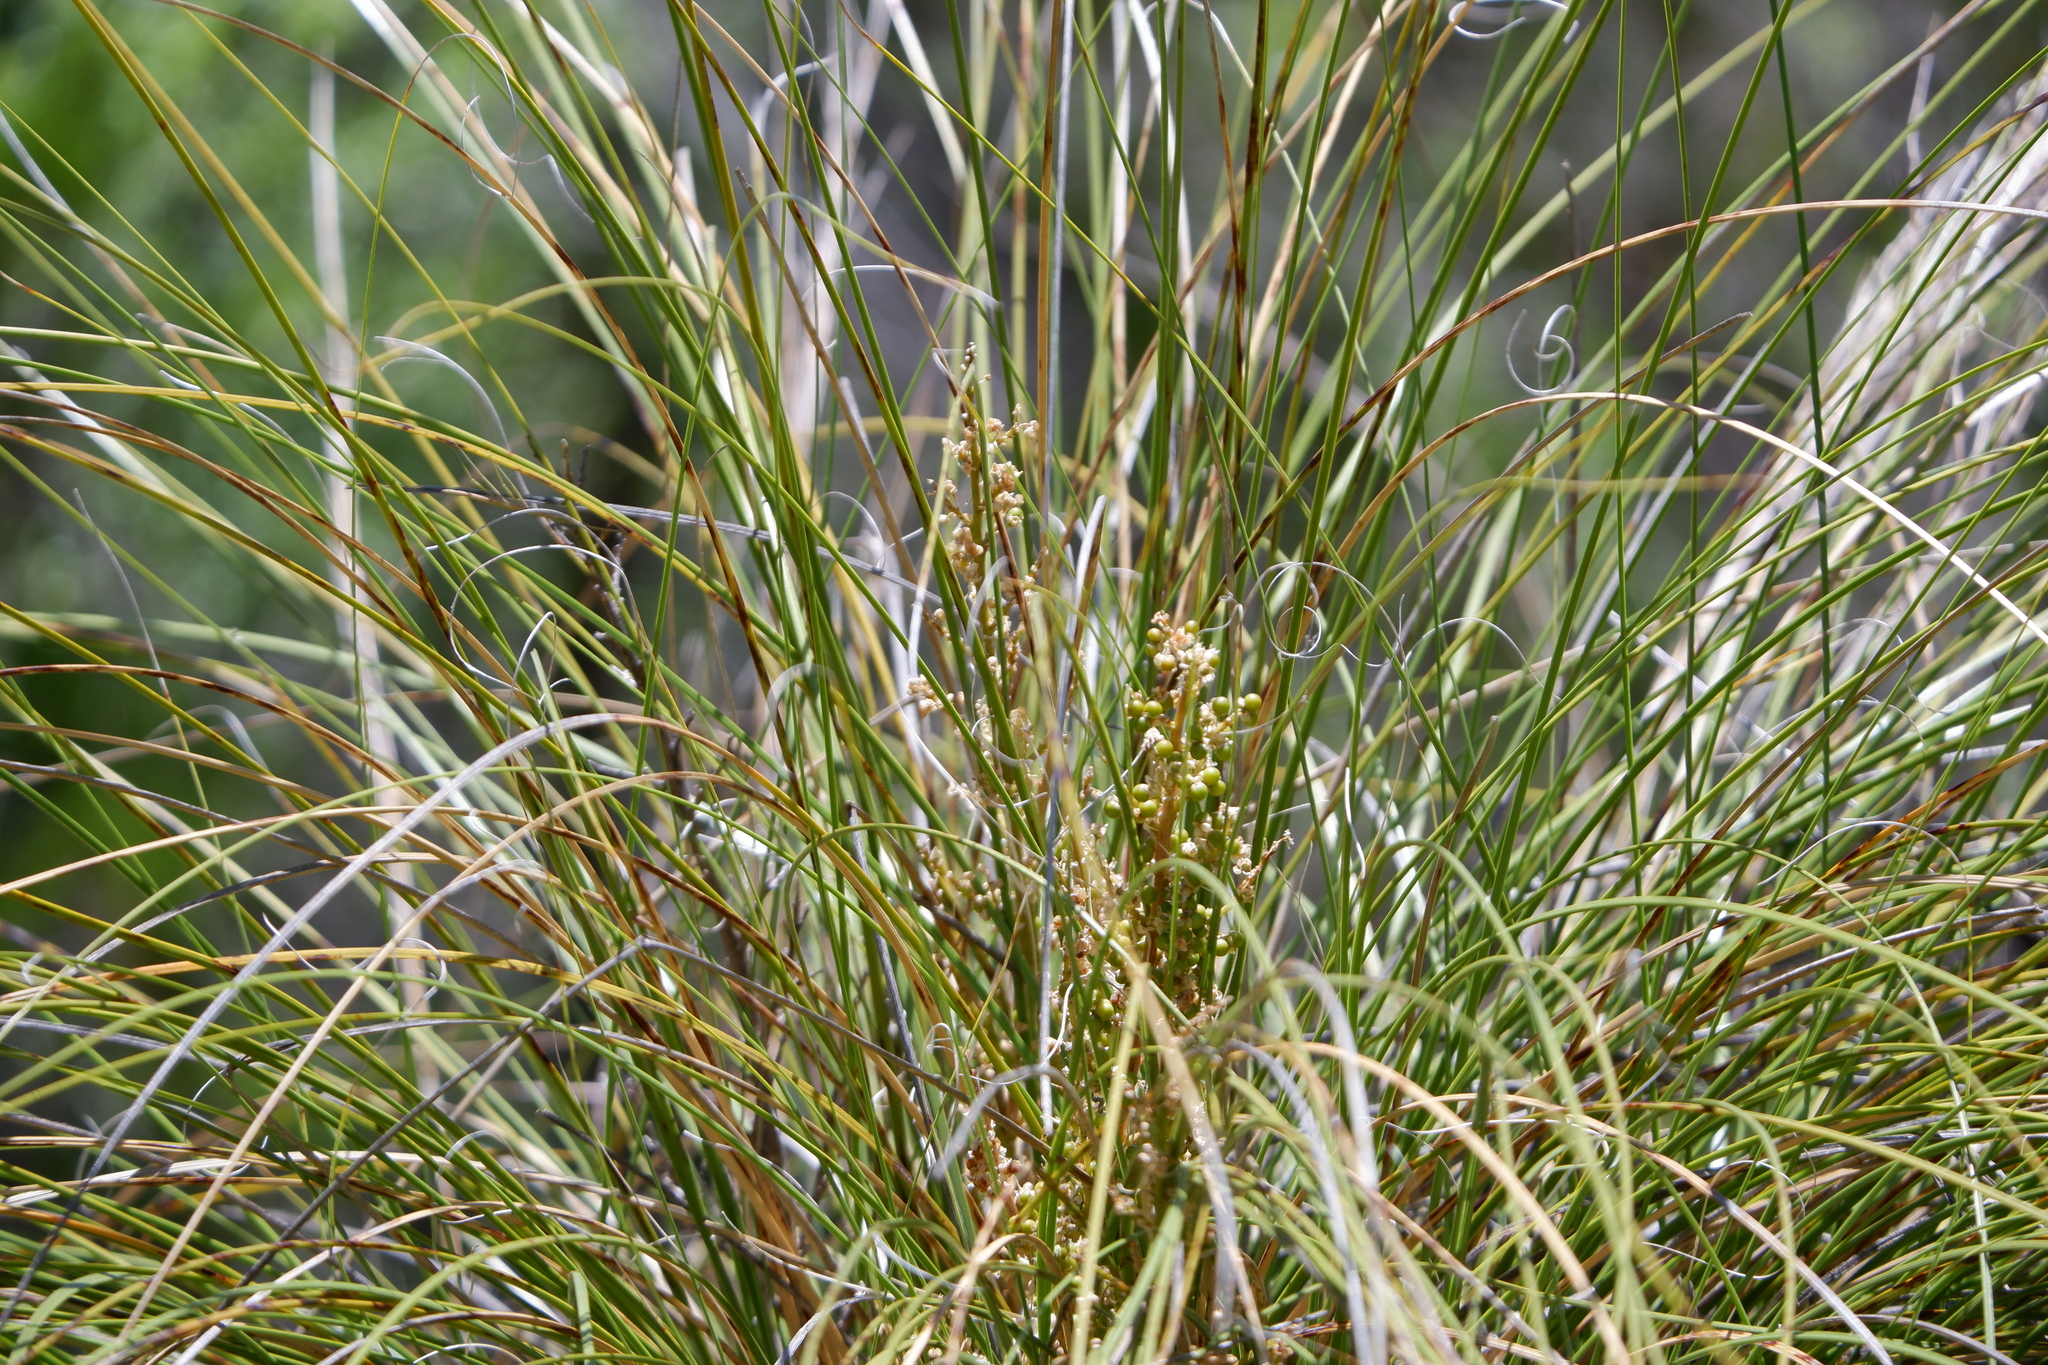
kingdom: Plantae
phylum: Tracheophyta
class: Liliopsida
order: Asparagales
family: Asparagaceae
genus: Nolina
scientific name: Nolina texana
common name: Texas sacahuiste
